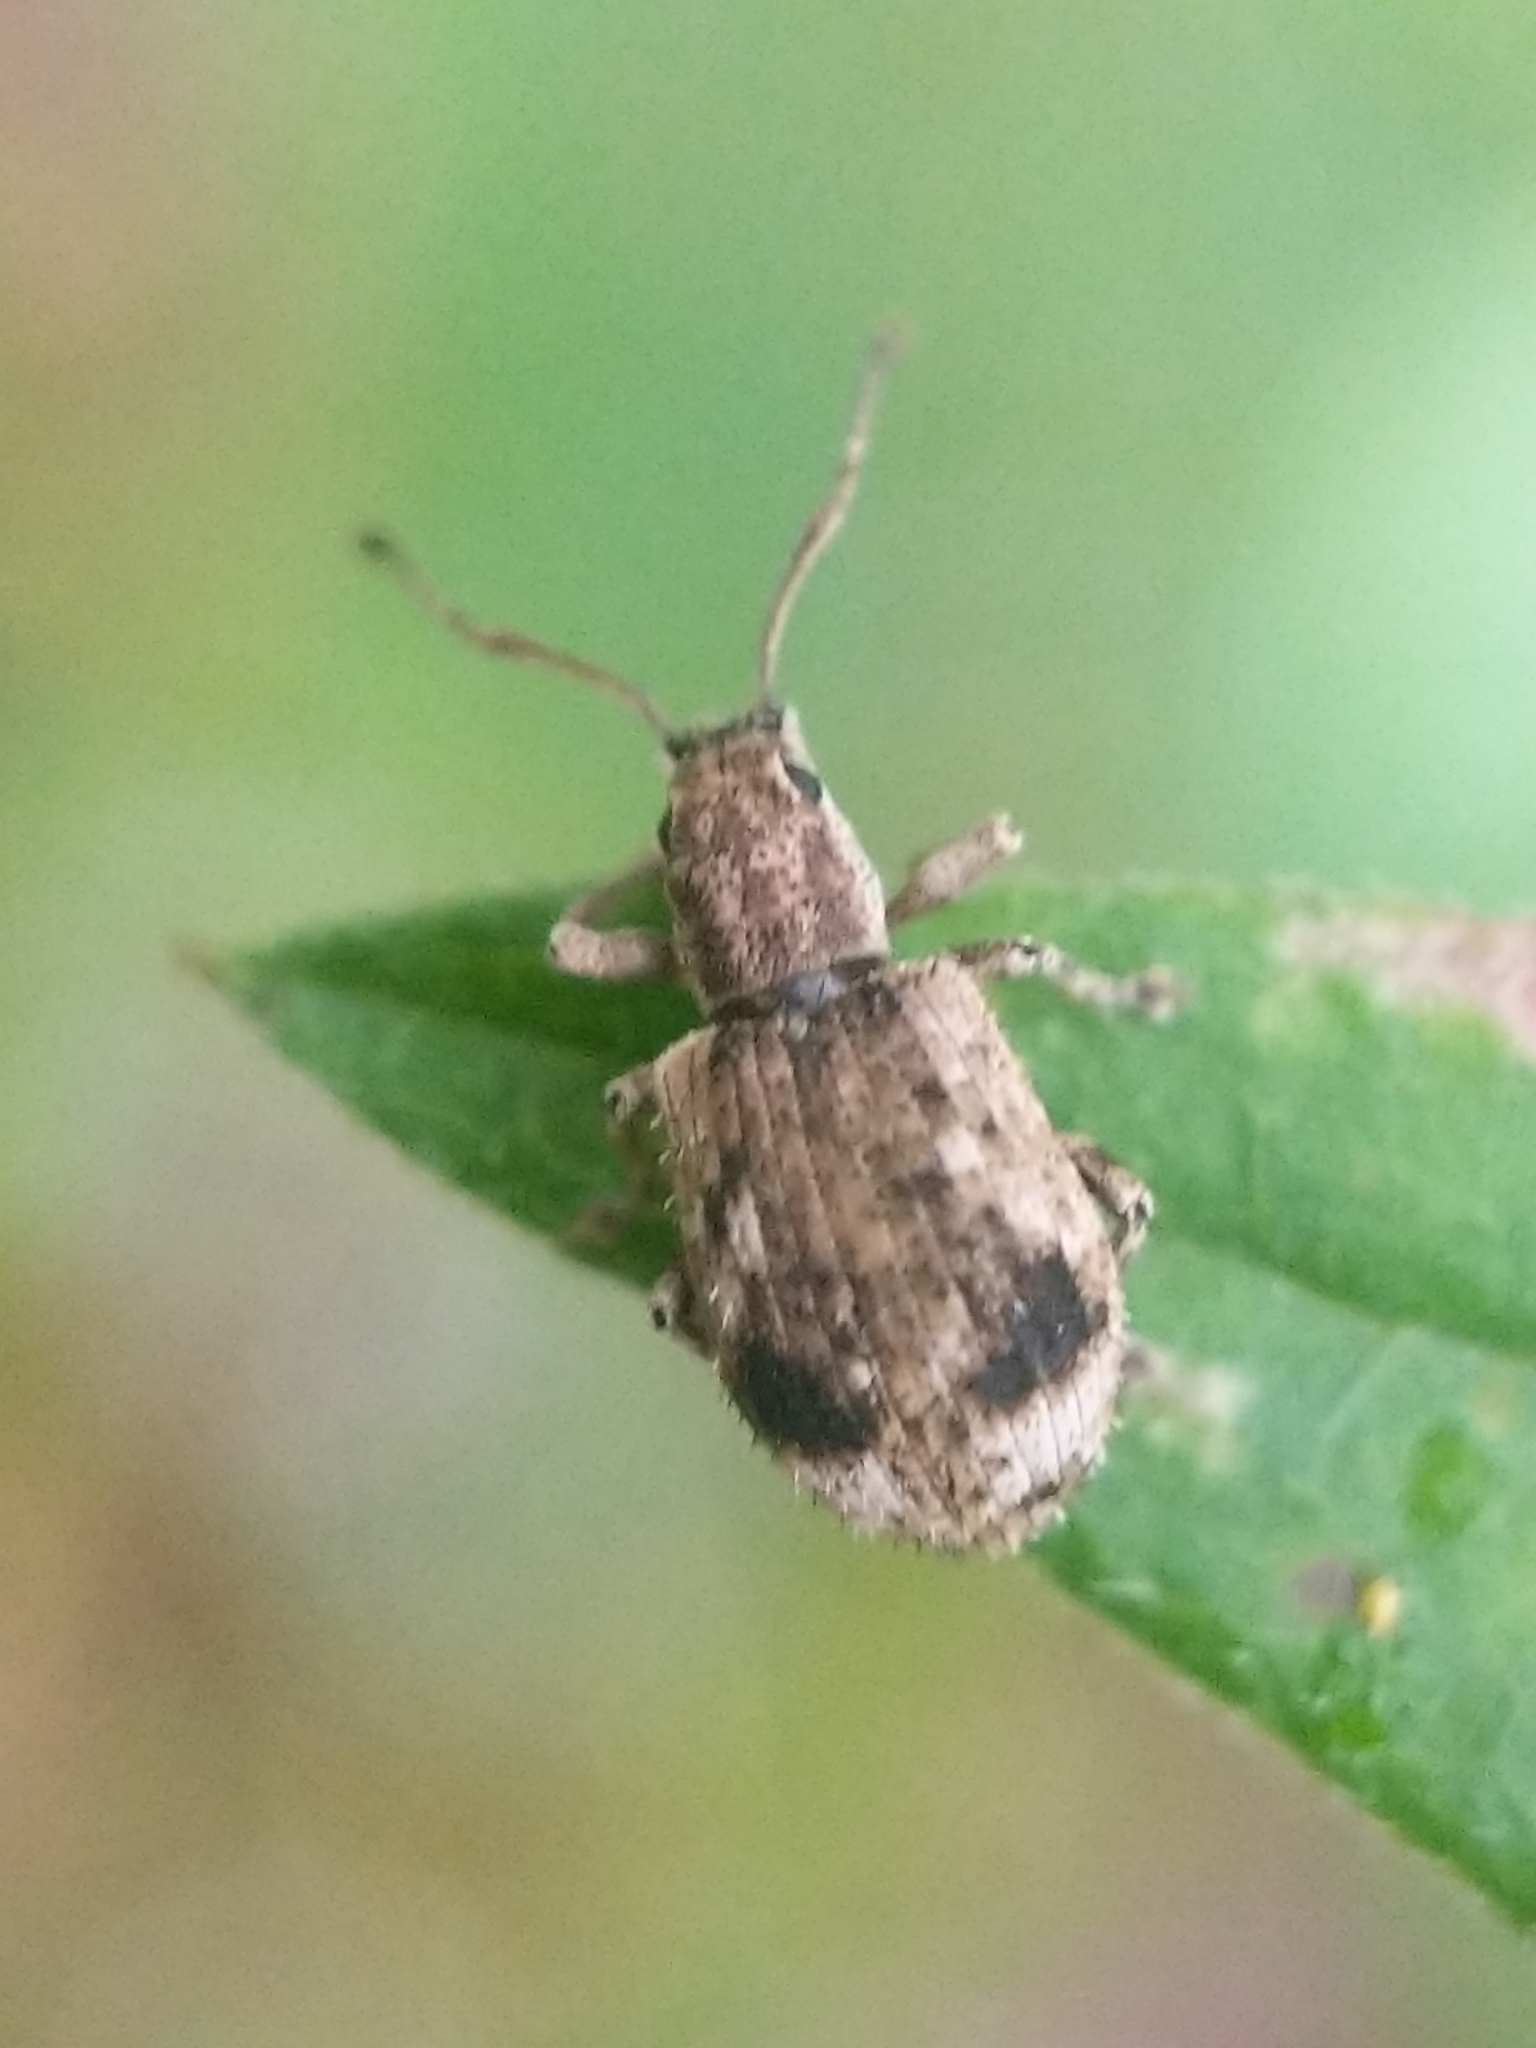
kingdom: Animalia
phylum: Arthropoda
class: Insecta
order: Coleoptera
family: Curculionidae
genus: Pseudoedophrys
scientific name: Pseudoedophrys hilleri
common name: Weevil
